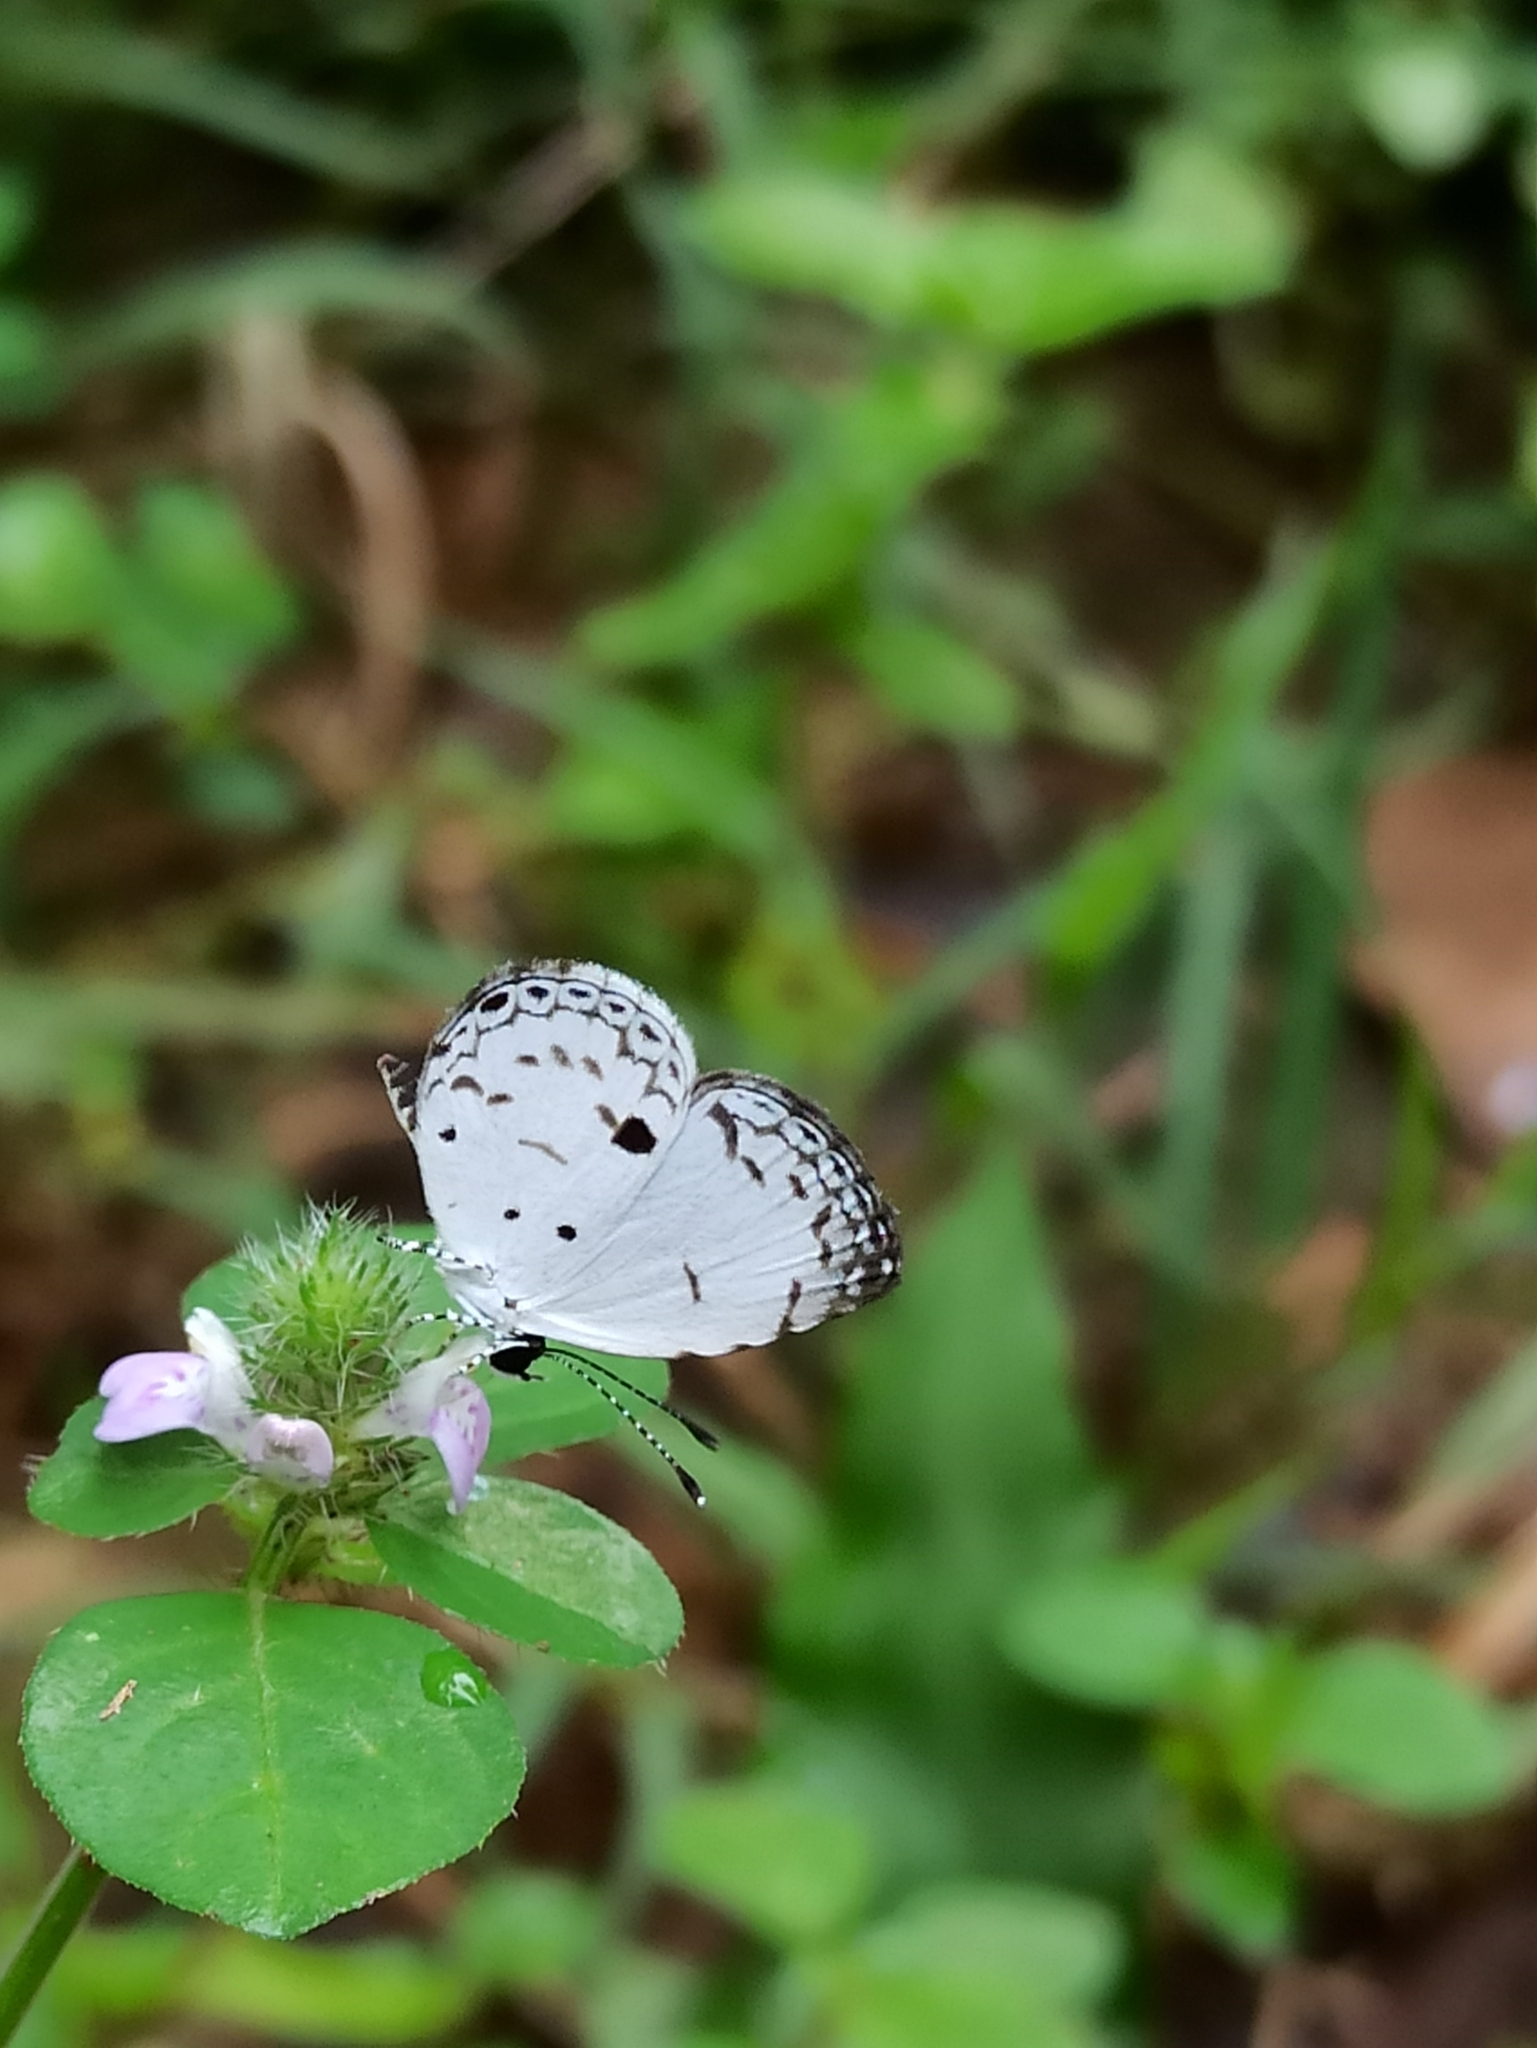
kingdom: Animalia
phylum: Arthropoda
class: Insecta
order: Lepidoptera
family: Lycaenidae
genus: Neopithecops
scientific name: Neopithecops zalmora
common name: Quaker
